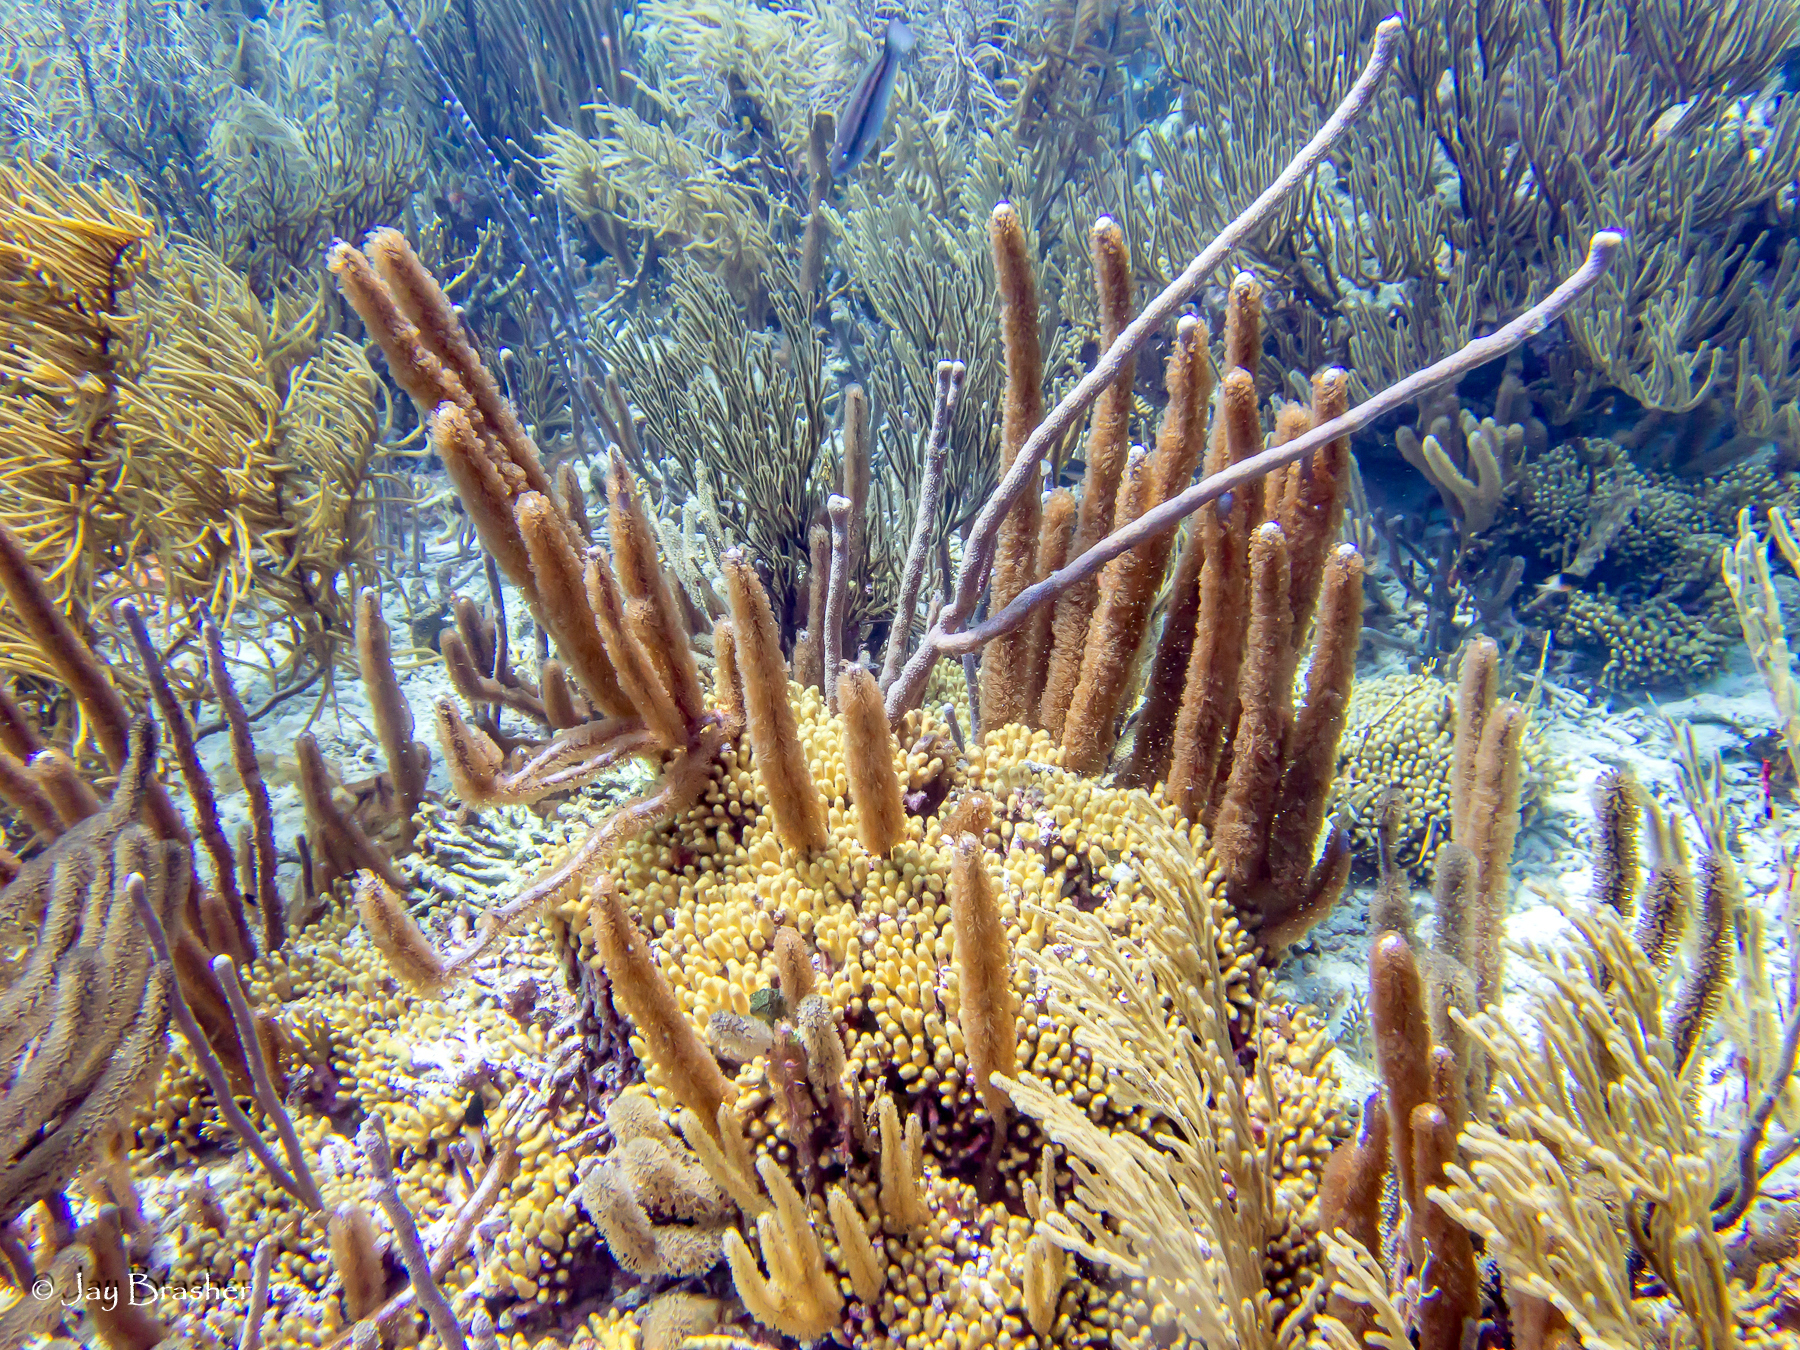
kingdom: Animalia
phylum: Cnidaria
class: Anthozoa
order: Scleractinia
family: Pocilloporidae
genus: Madracis
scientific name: Madracis auretenra
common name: Yellow pencil coral
